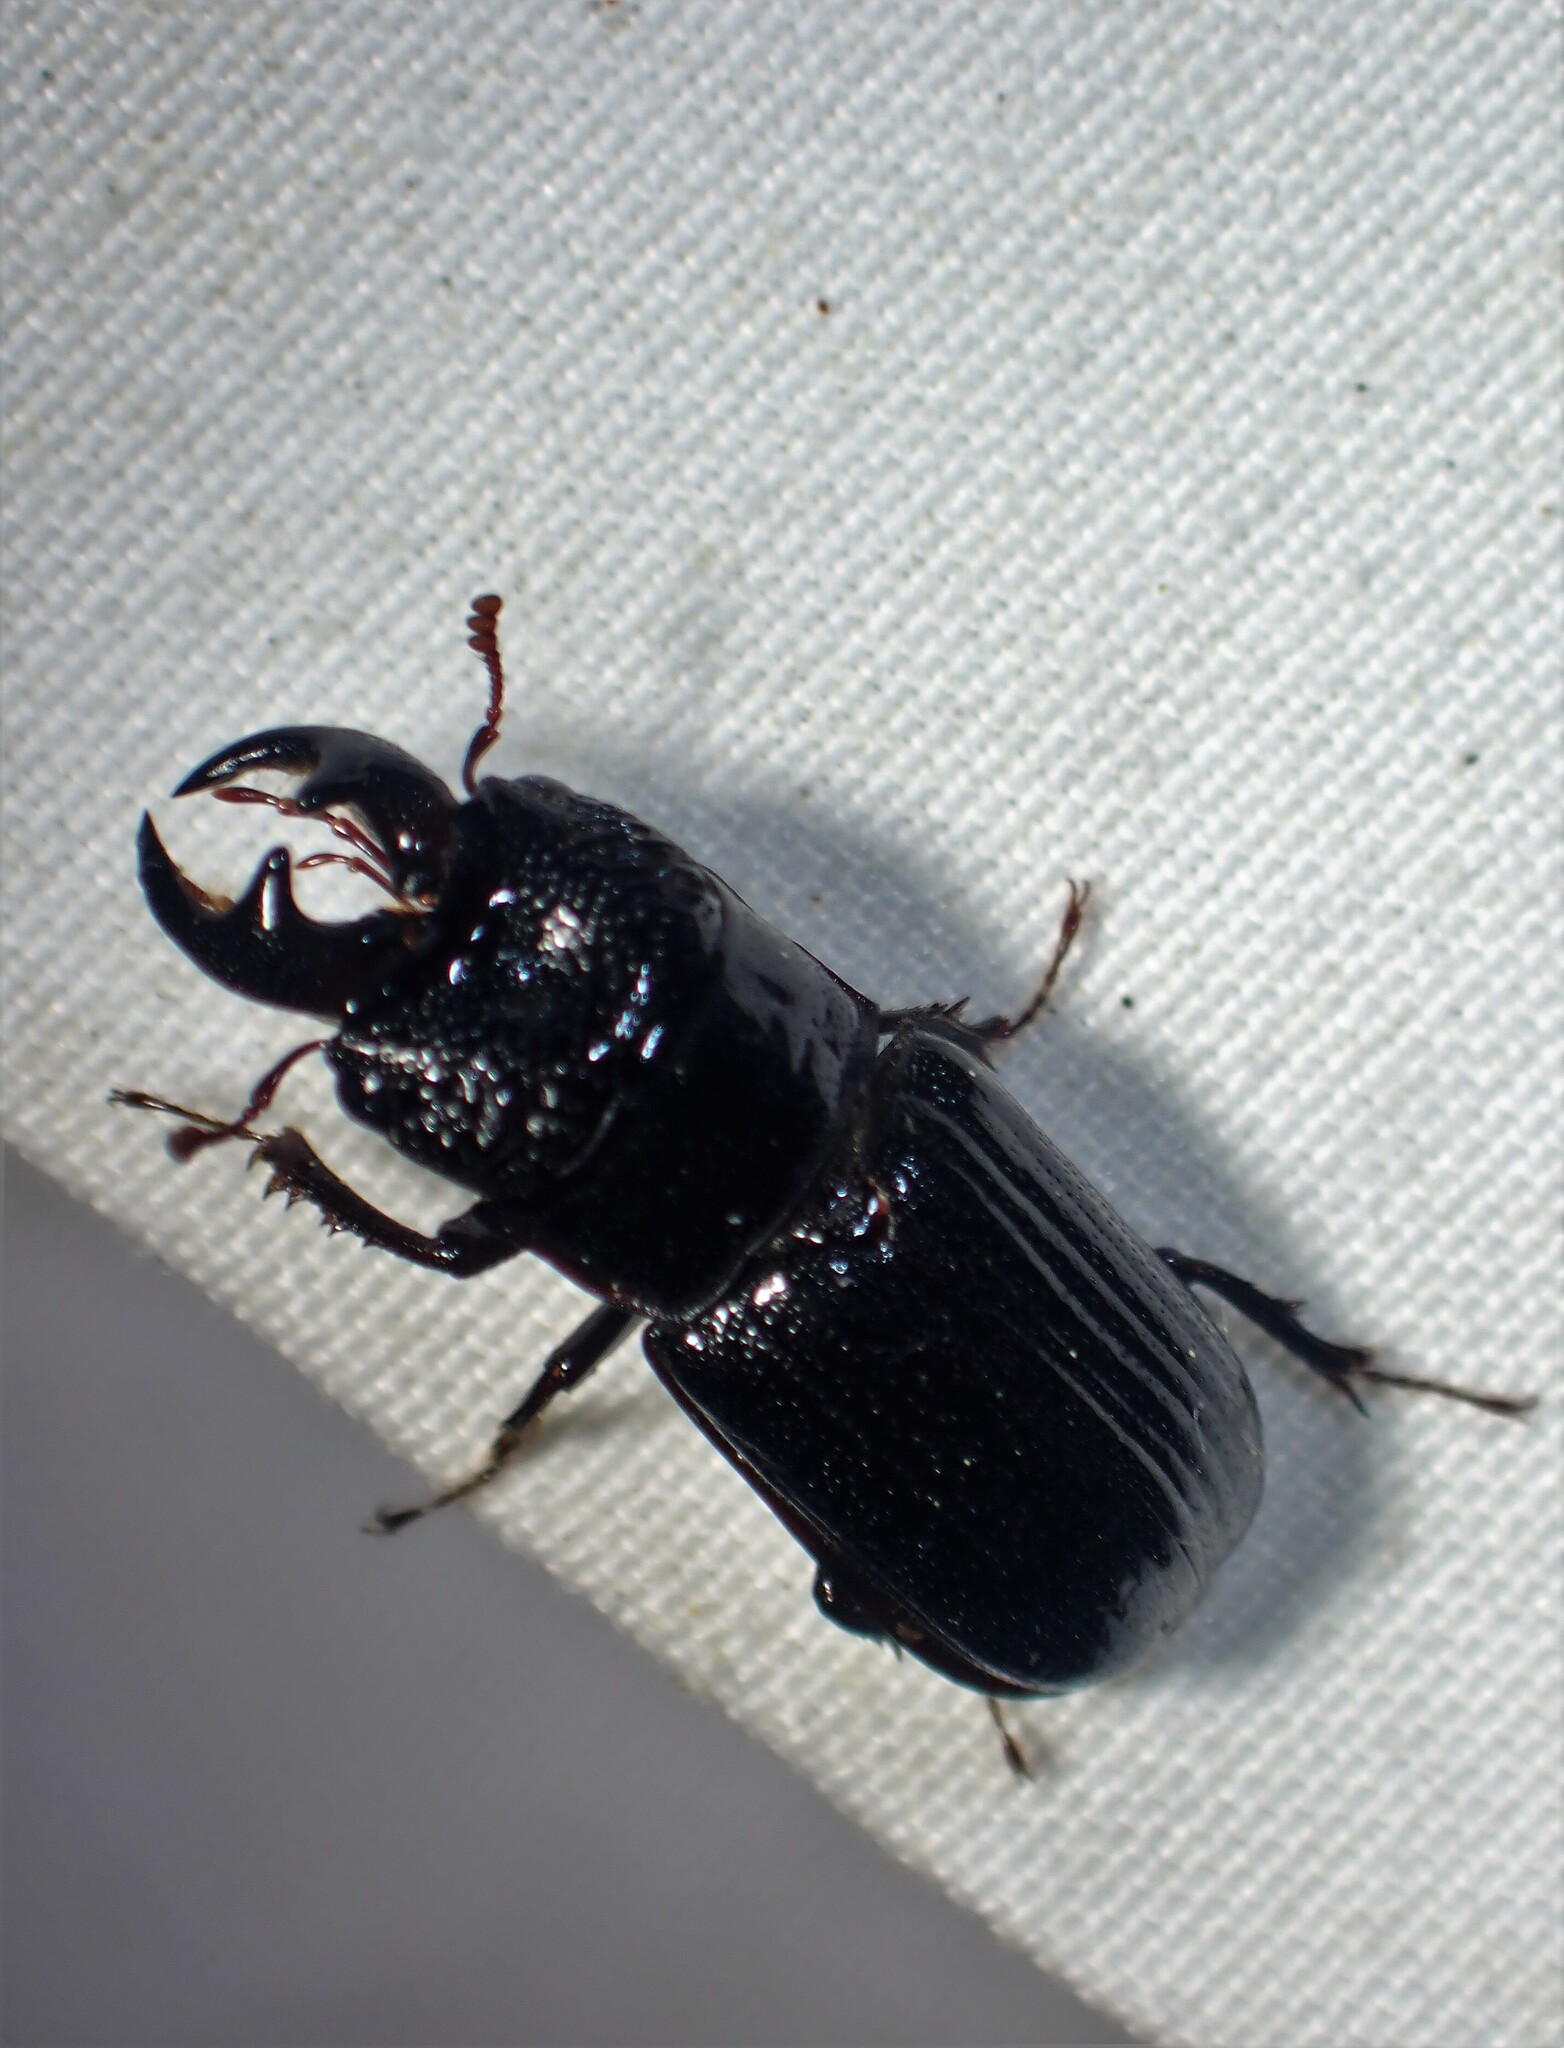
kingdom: Animalia
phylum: Arthropoda
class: Insecta
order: Coleoptera
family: Lucanidae
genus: Ceruchus
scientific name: Ceruchus piceus
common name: Red-rot decay stag beetle
